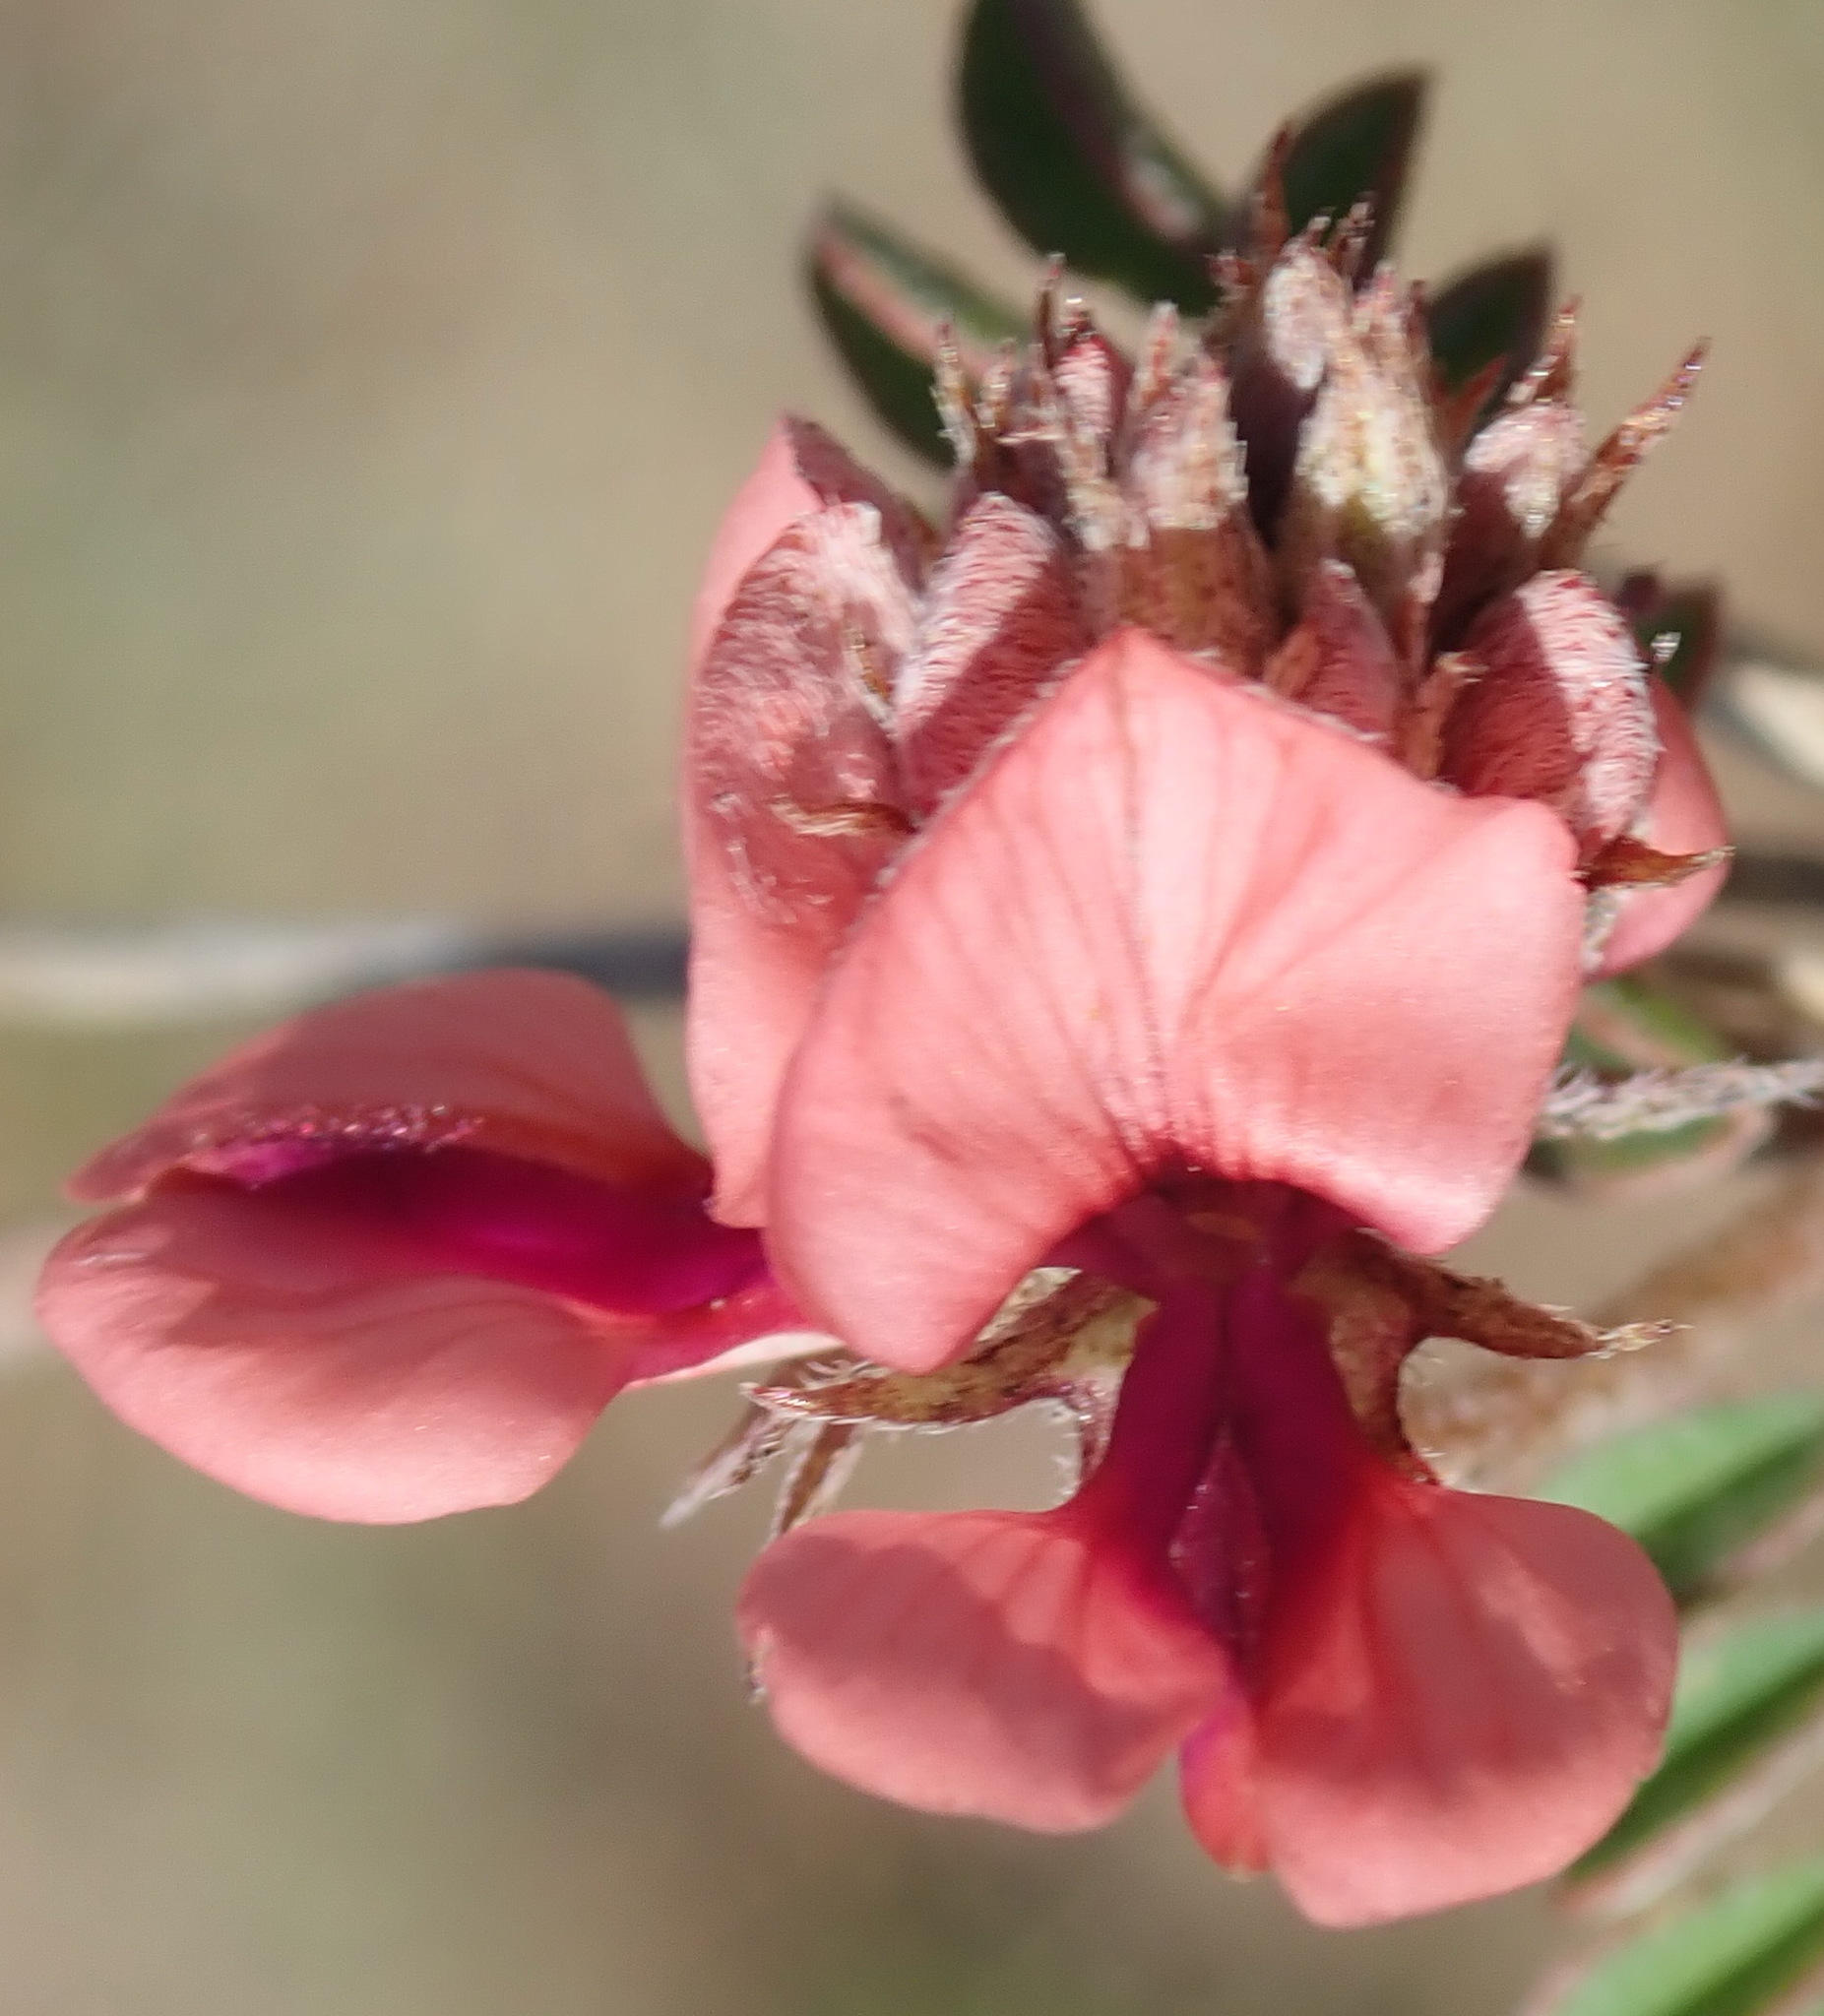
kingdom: Plantae
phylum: Tracheophyta
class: Magnoliopsida
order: Fabales
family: Fabaceae
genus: Indigofera
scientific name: Indigofera alternans
